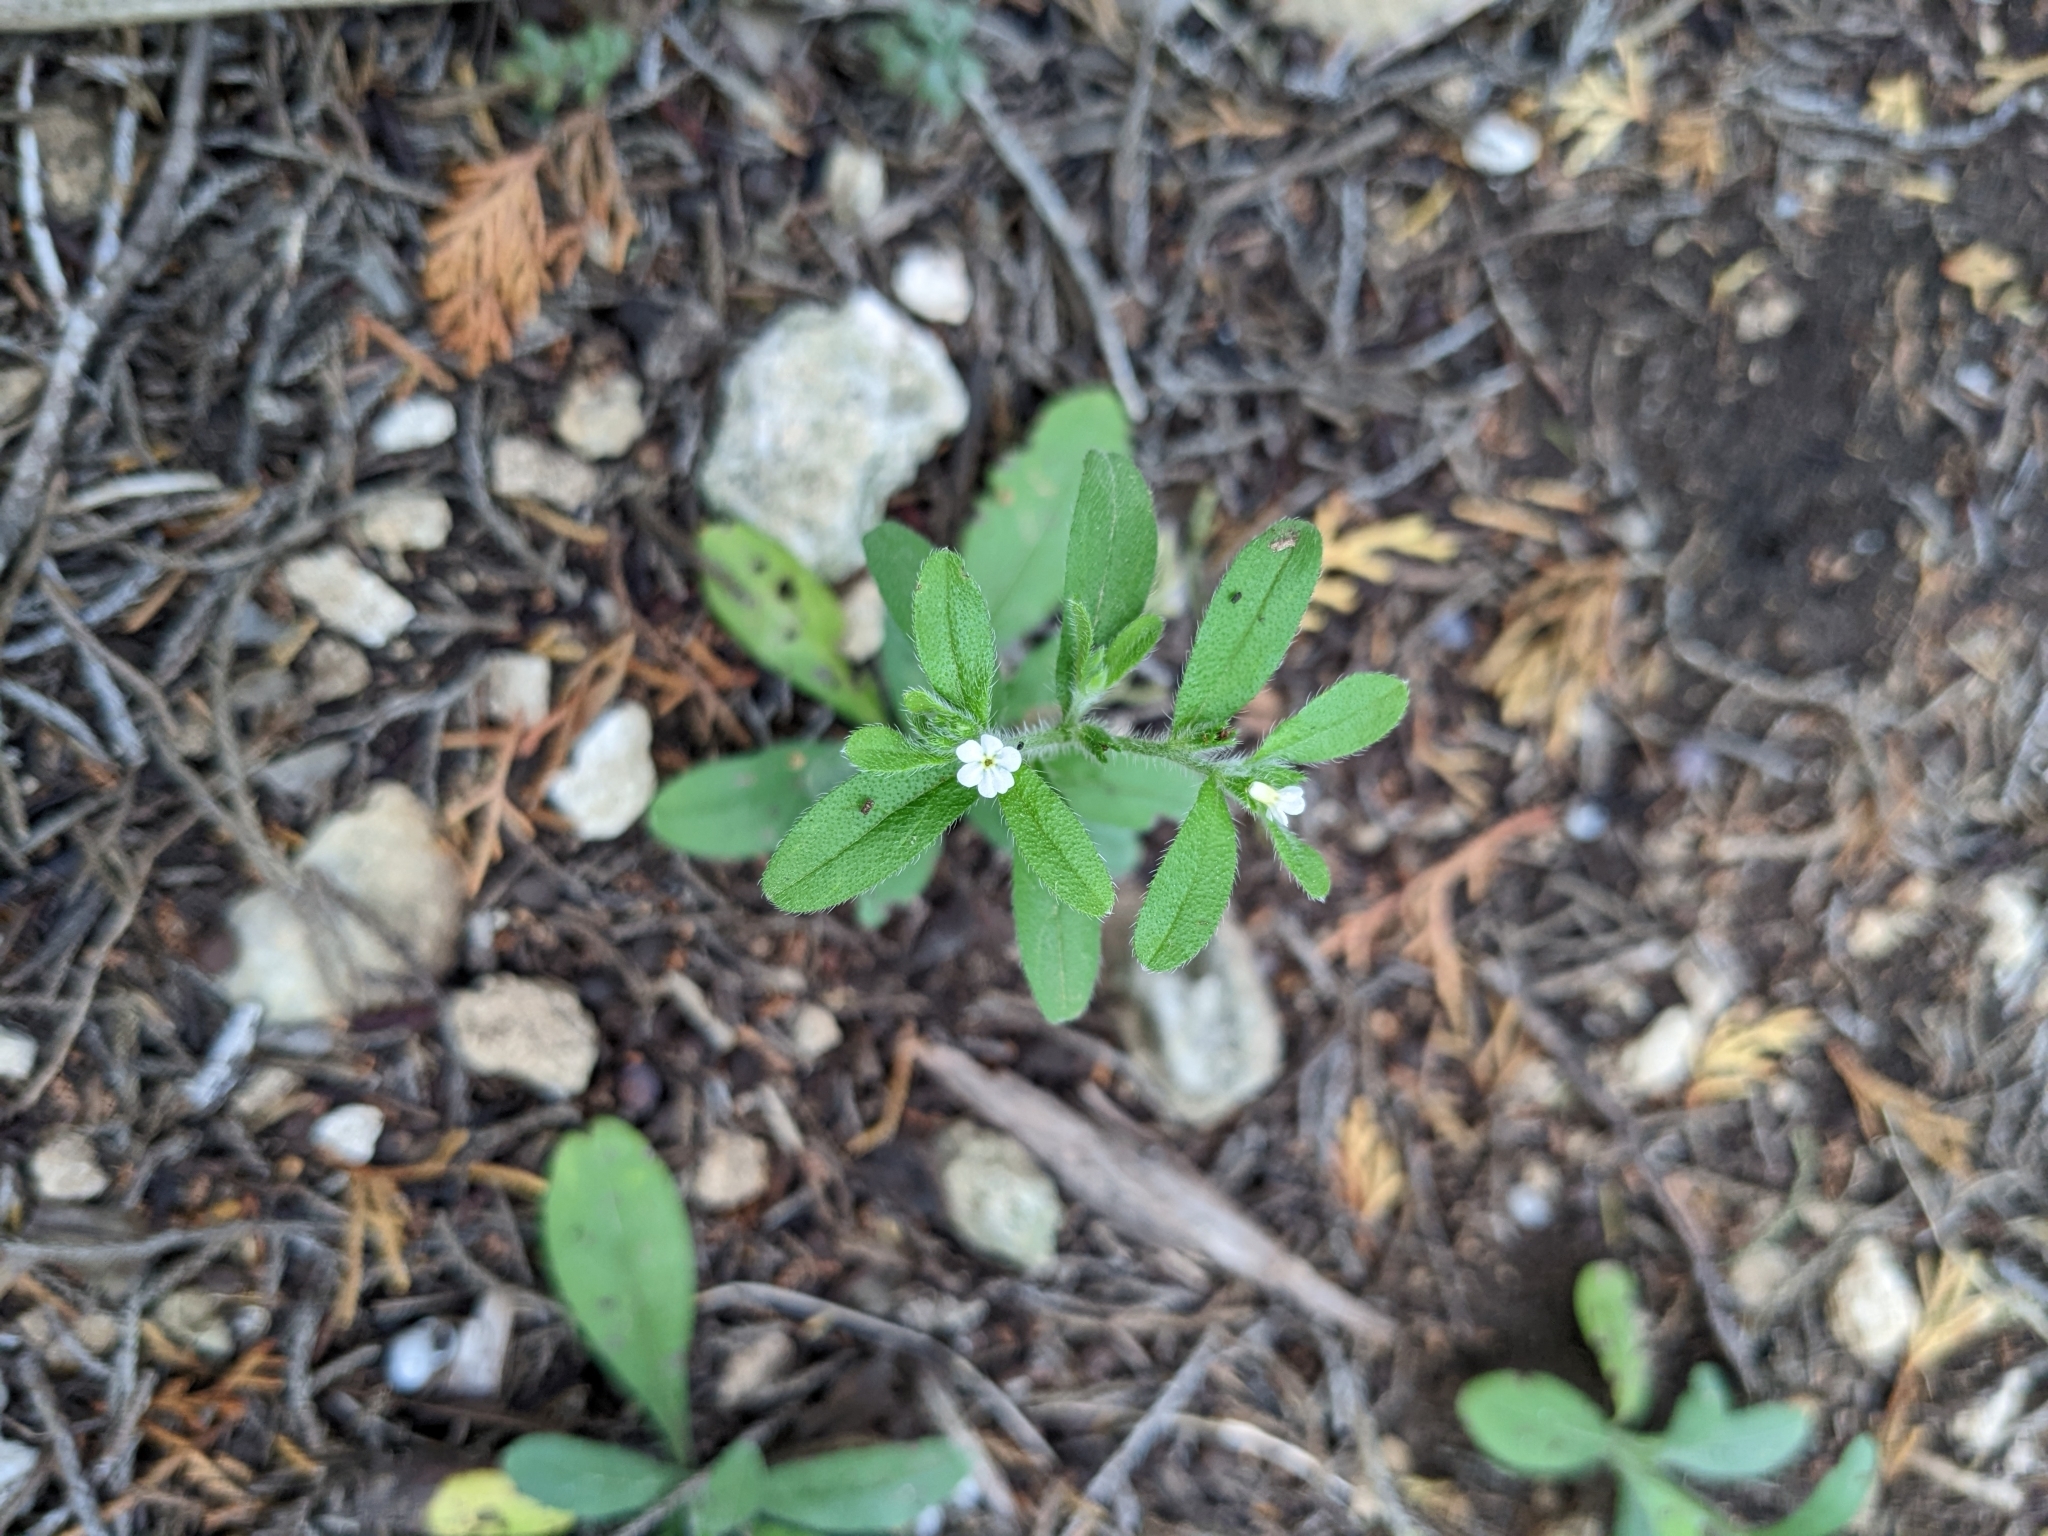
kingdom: Plantae
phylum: Tracheophyta
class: Magnoliopsida
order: Boraginales
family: Boraginaceae
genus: Lithospermum
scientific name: Lithospermum matamorense
